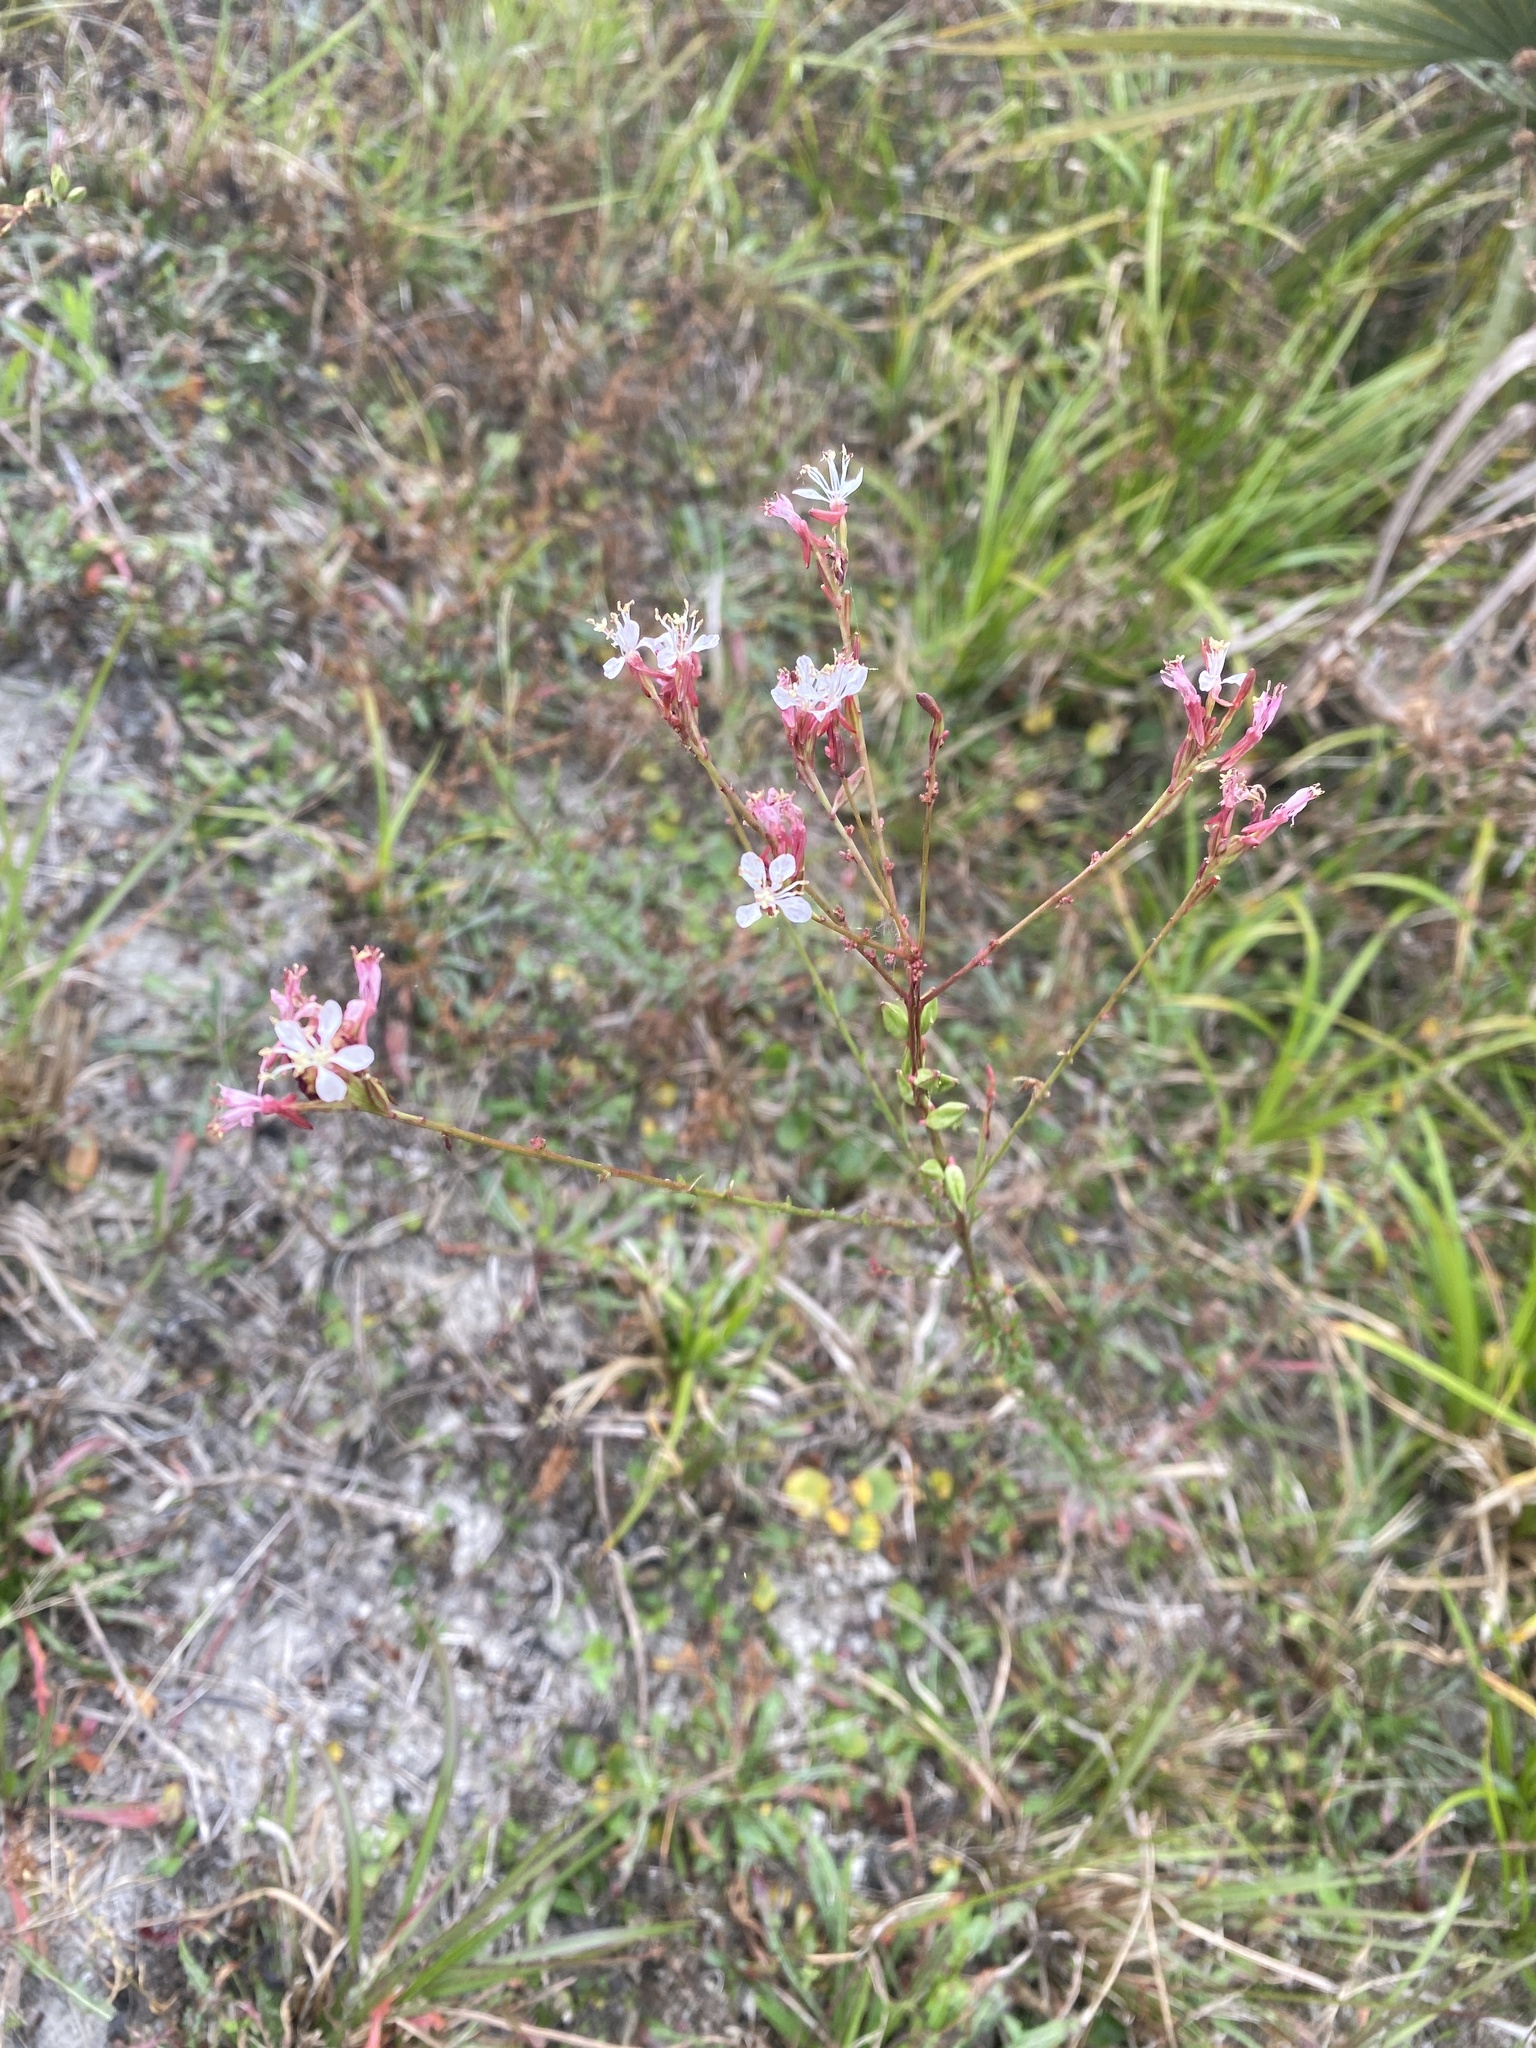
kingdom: Plantae
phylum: Tracheophyta
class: Magnoliopsida
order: Myrtales
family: Onagraceae
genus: Oenothera
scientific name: Oenothera simulans
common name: Southern beeblossom
